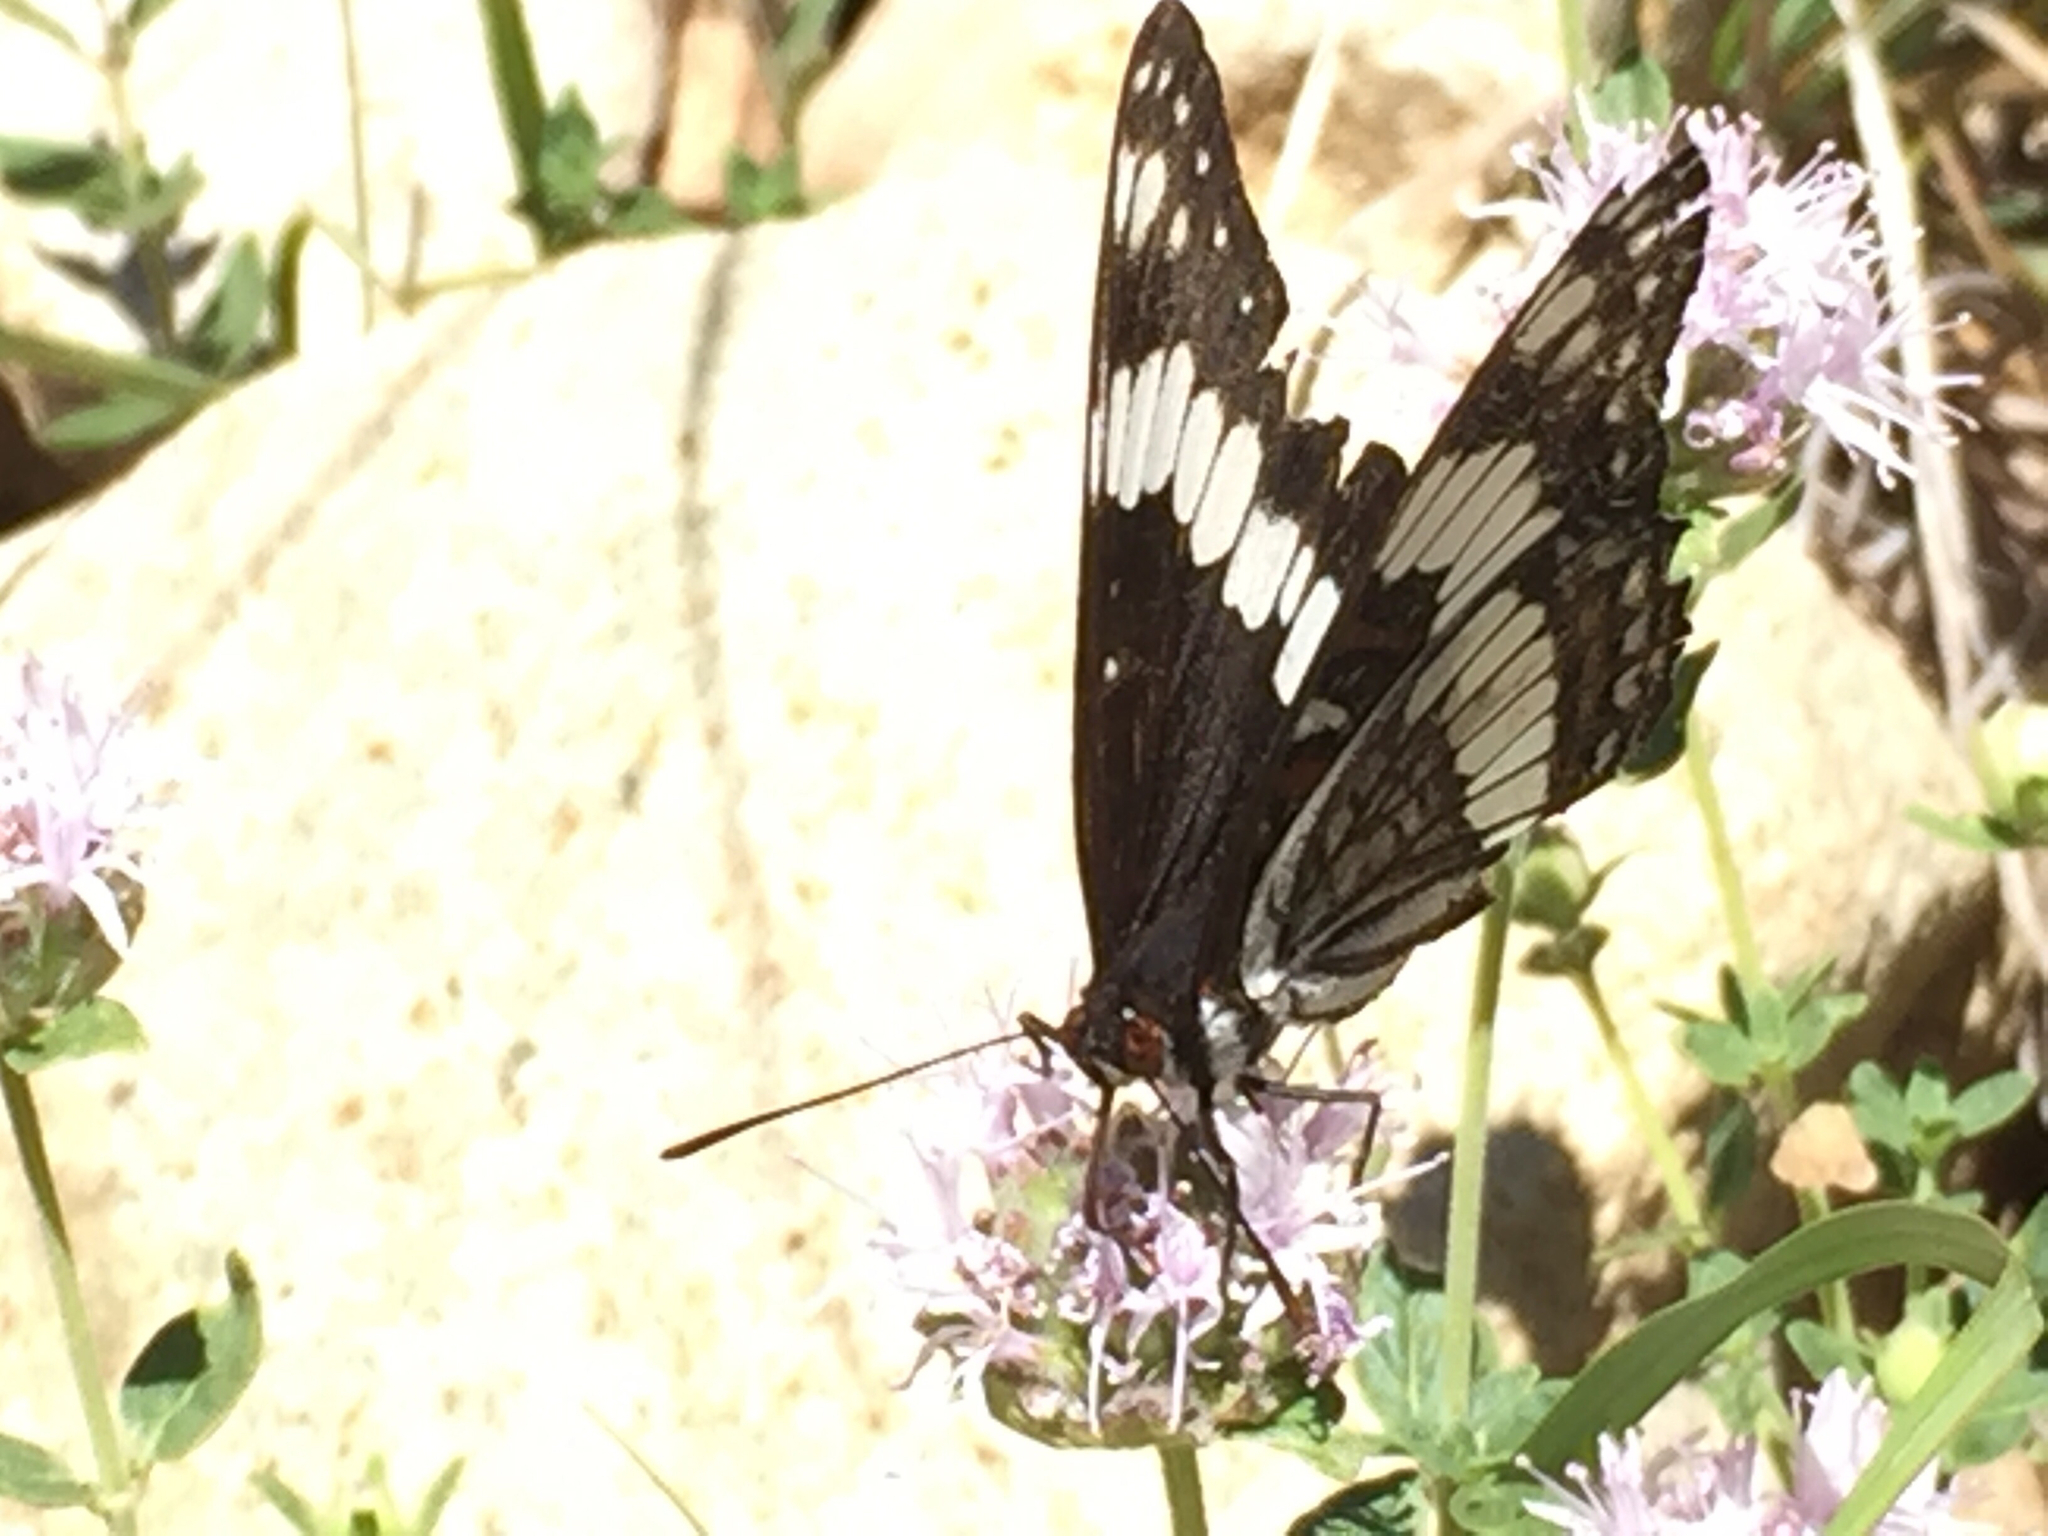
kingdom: Animalia
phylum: Arthropoda
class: Insecta
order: Lepidoptera
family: Nymphalidae
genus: Limenitis
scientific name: Limenitis weidemeyerii
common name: Weidemeyer's admiral
